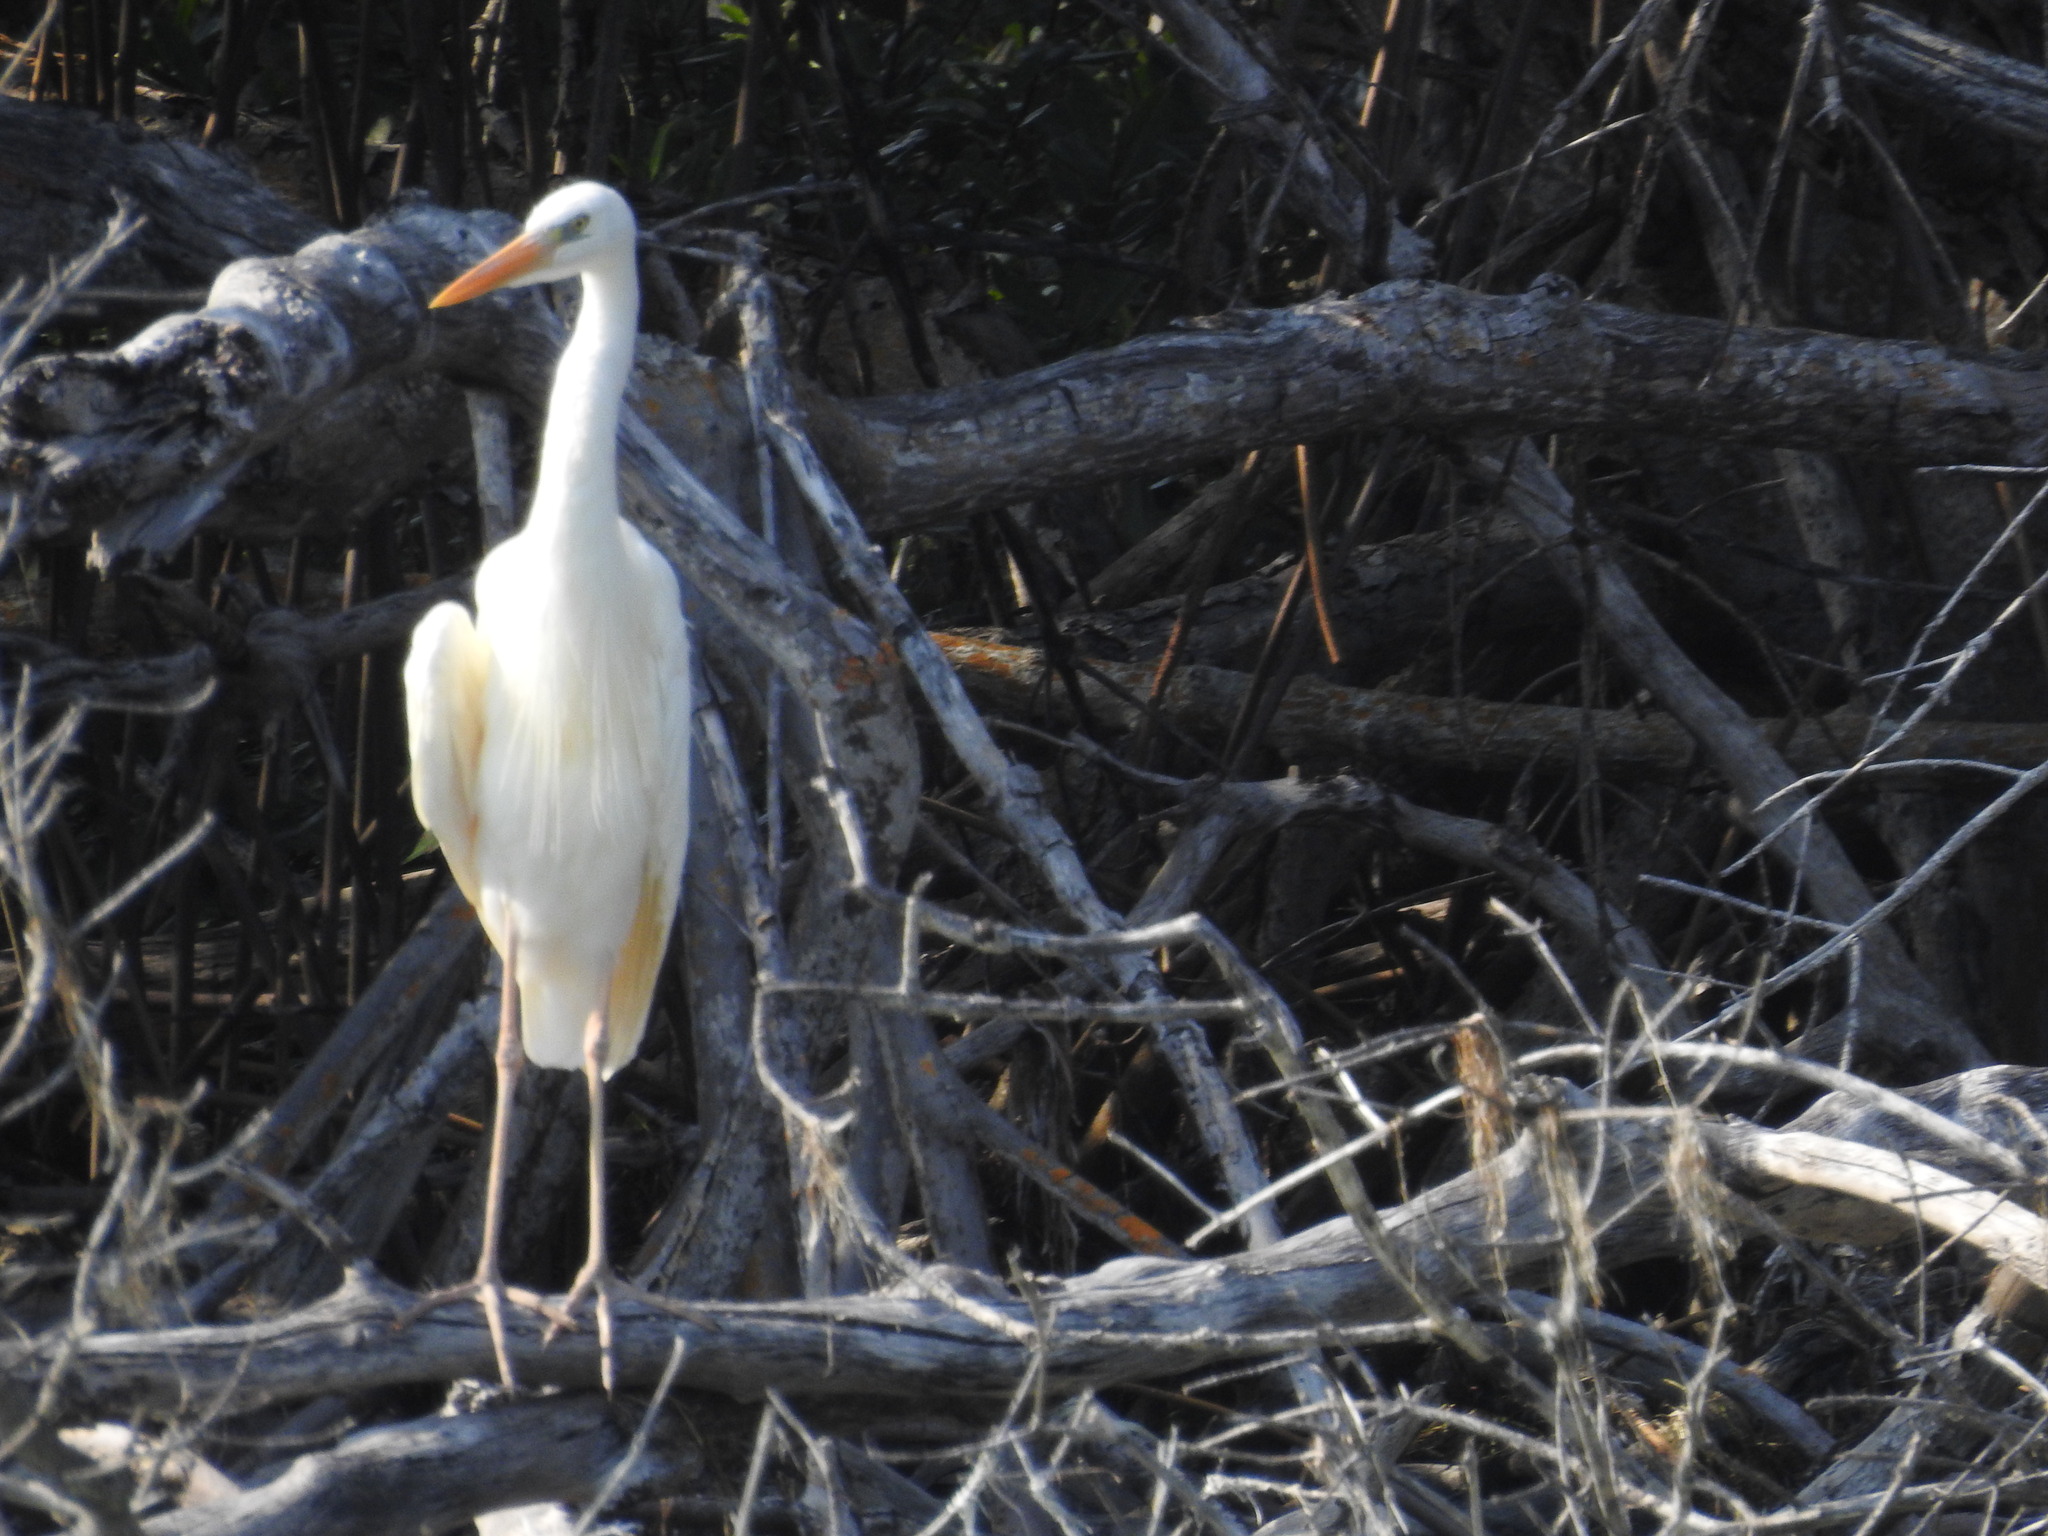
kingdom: Animalia
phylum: Chordata
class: Aves
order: Pelecaniformes
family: Ardeidae
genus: Ardea
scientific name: Ardea herodias
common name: Great blue heron
